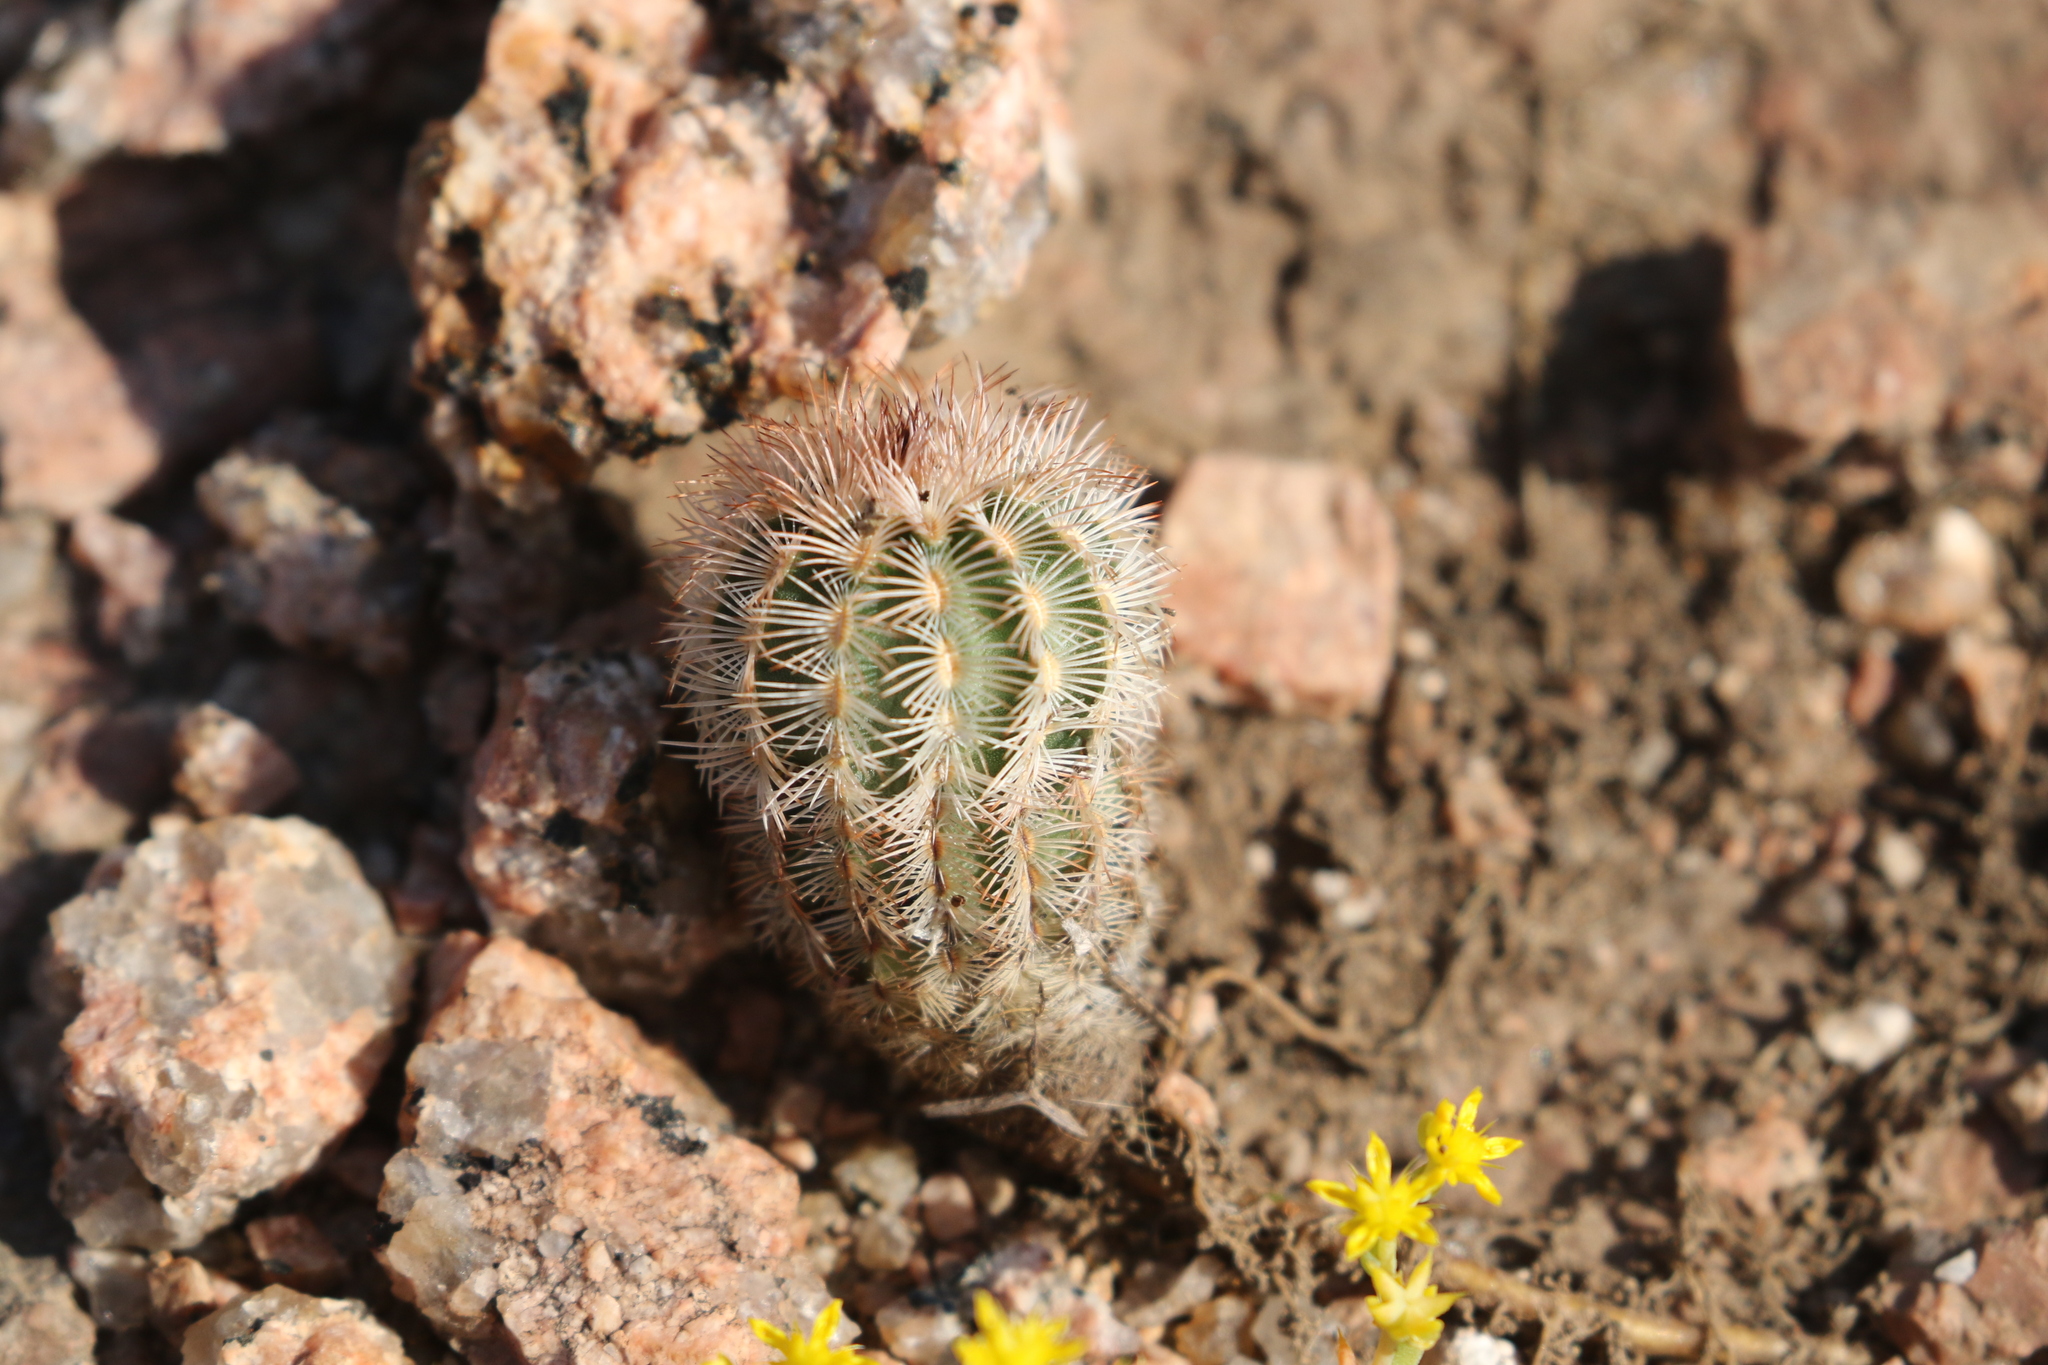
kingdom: Plantae
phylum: Tracheophyta
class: Magnoliopsida
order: Caryophyllales
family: Cactaceae
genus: Echinocereus
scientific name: Echinocereus reichenbachii
